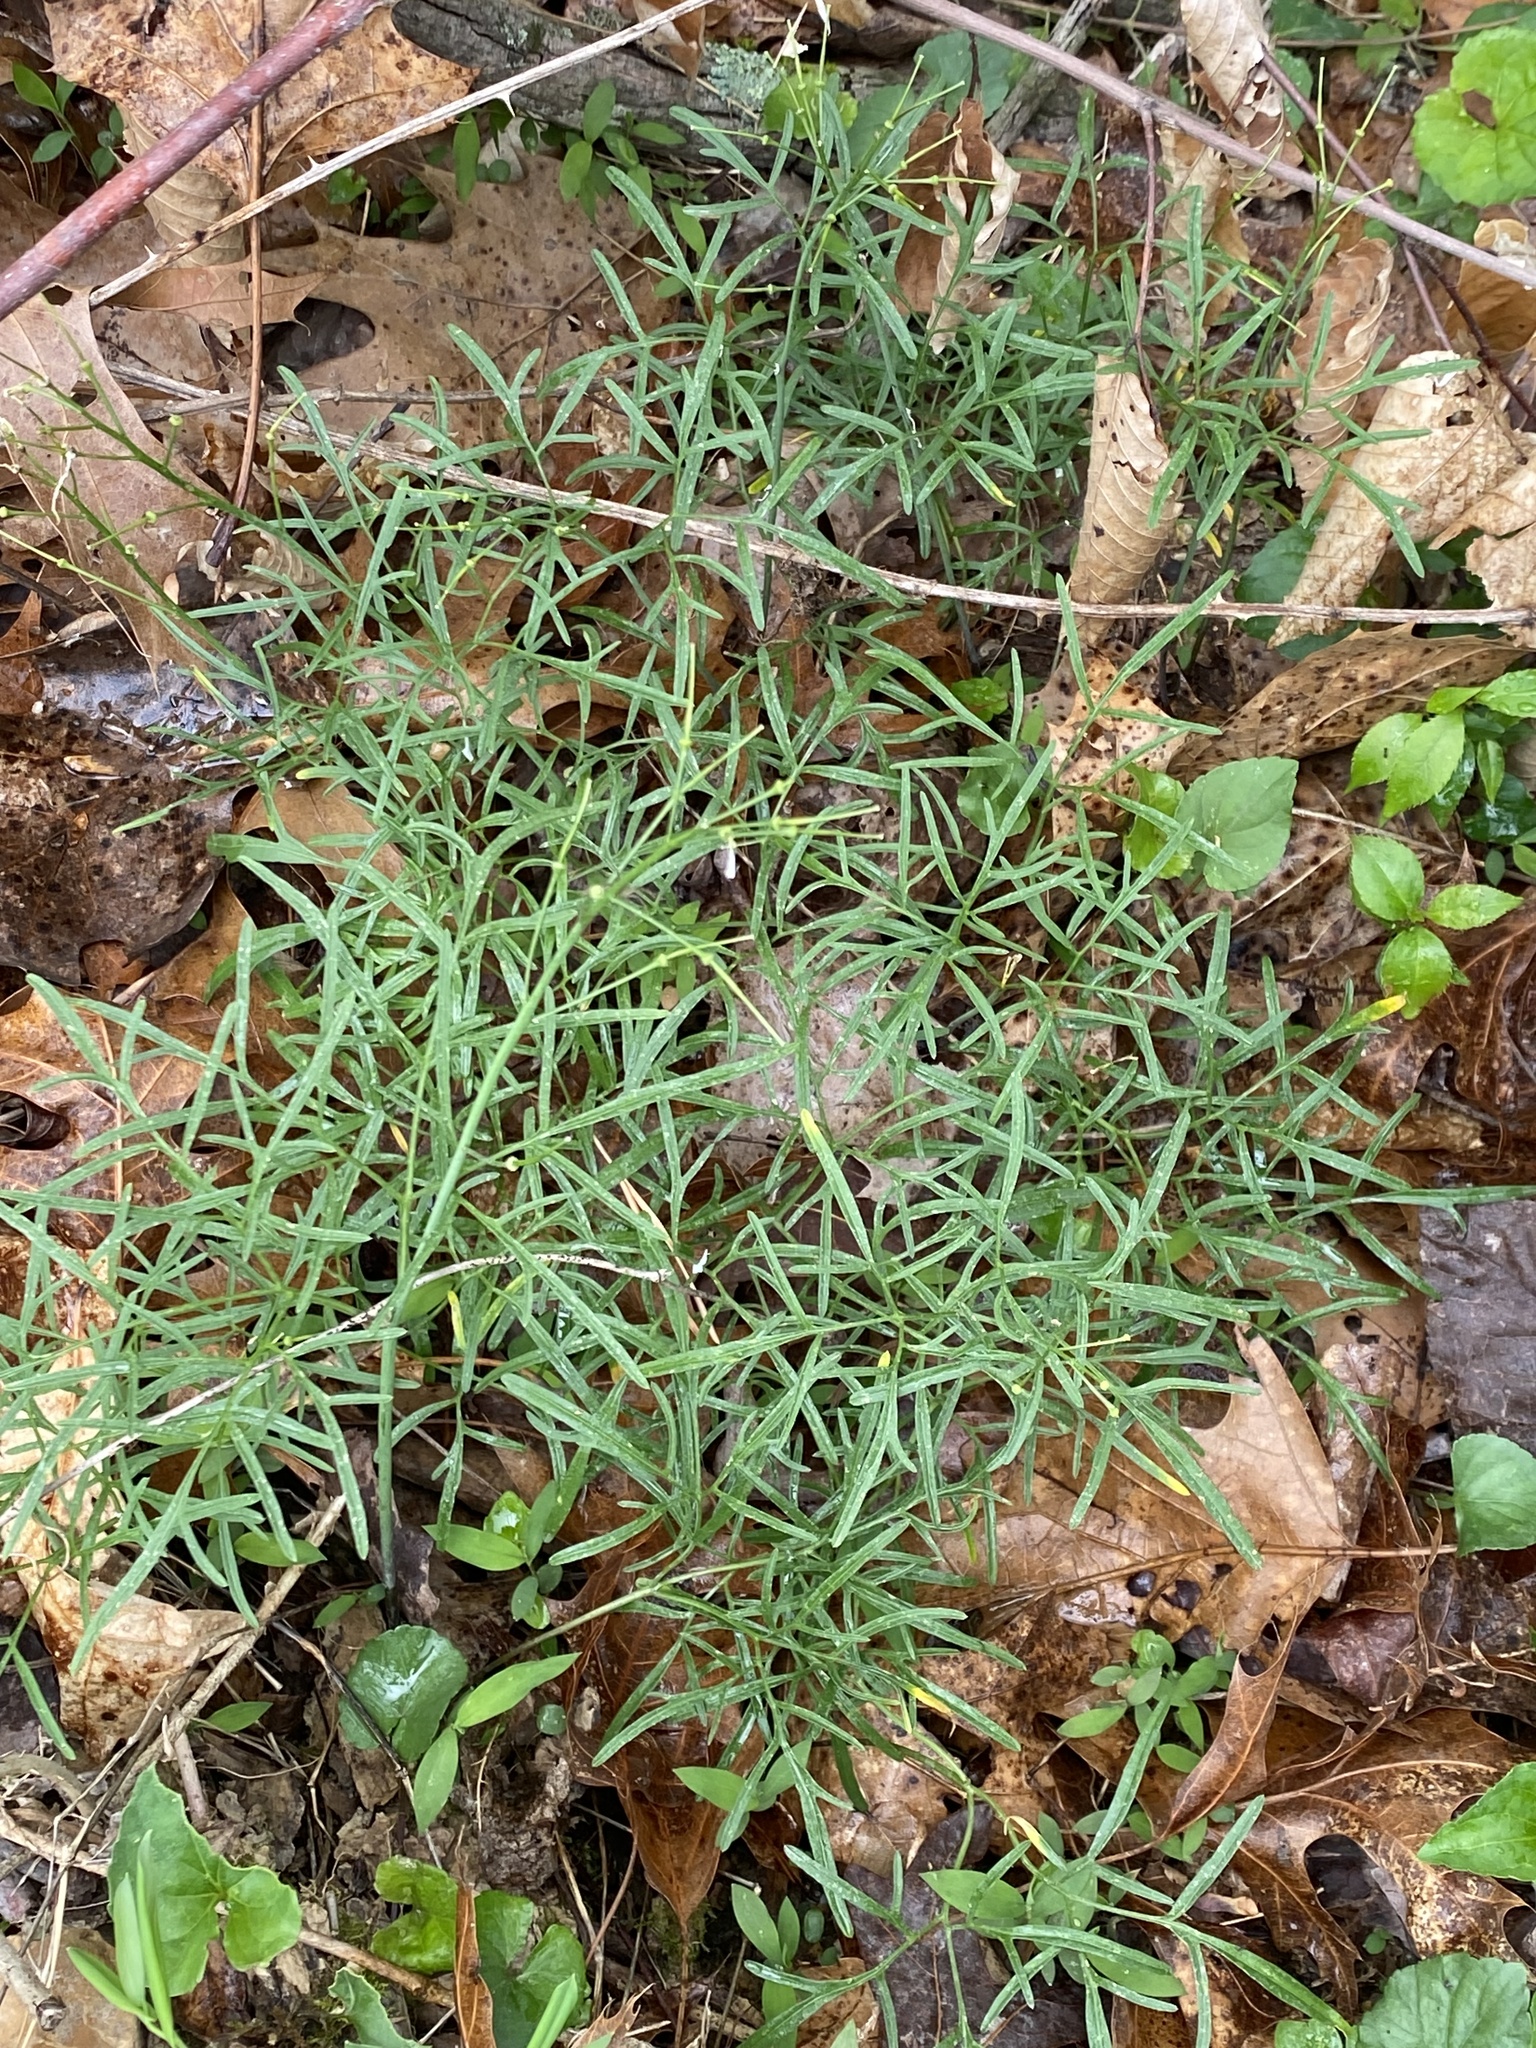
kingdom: Plantae
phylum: Tracheophyta
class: Magnoliopsida
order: Brassicales
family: Brassicaceae
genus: Cardamine
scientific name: Cardamine dissecta
